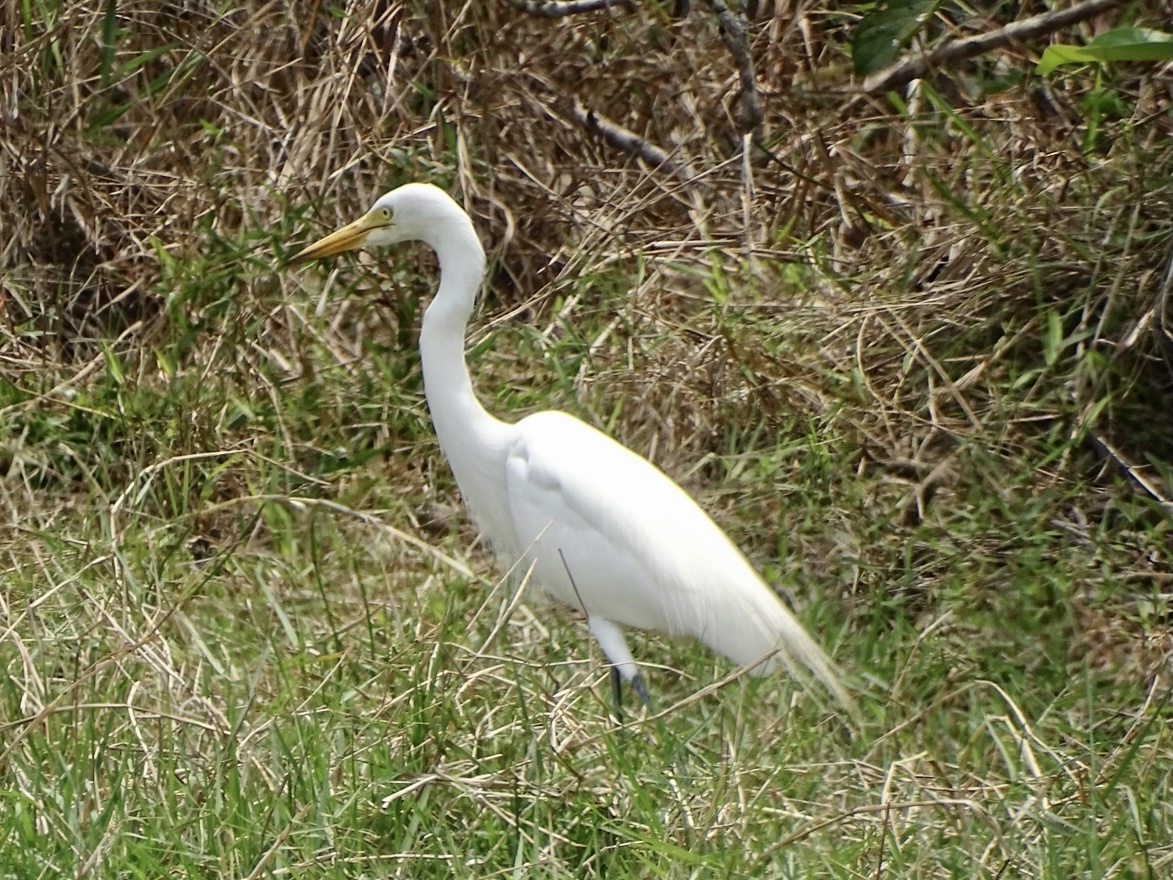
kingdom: Animalia
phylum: Chordata
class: Aves
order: Pelecaniformes
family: Ardeidae
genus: Ardea
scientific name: Ardea alba
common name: Great egret
